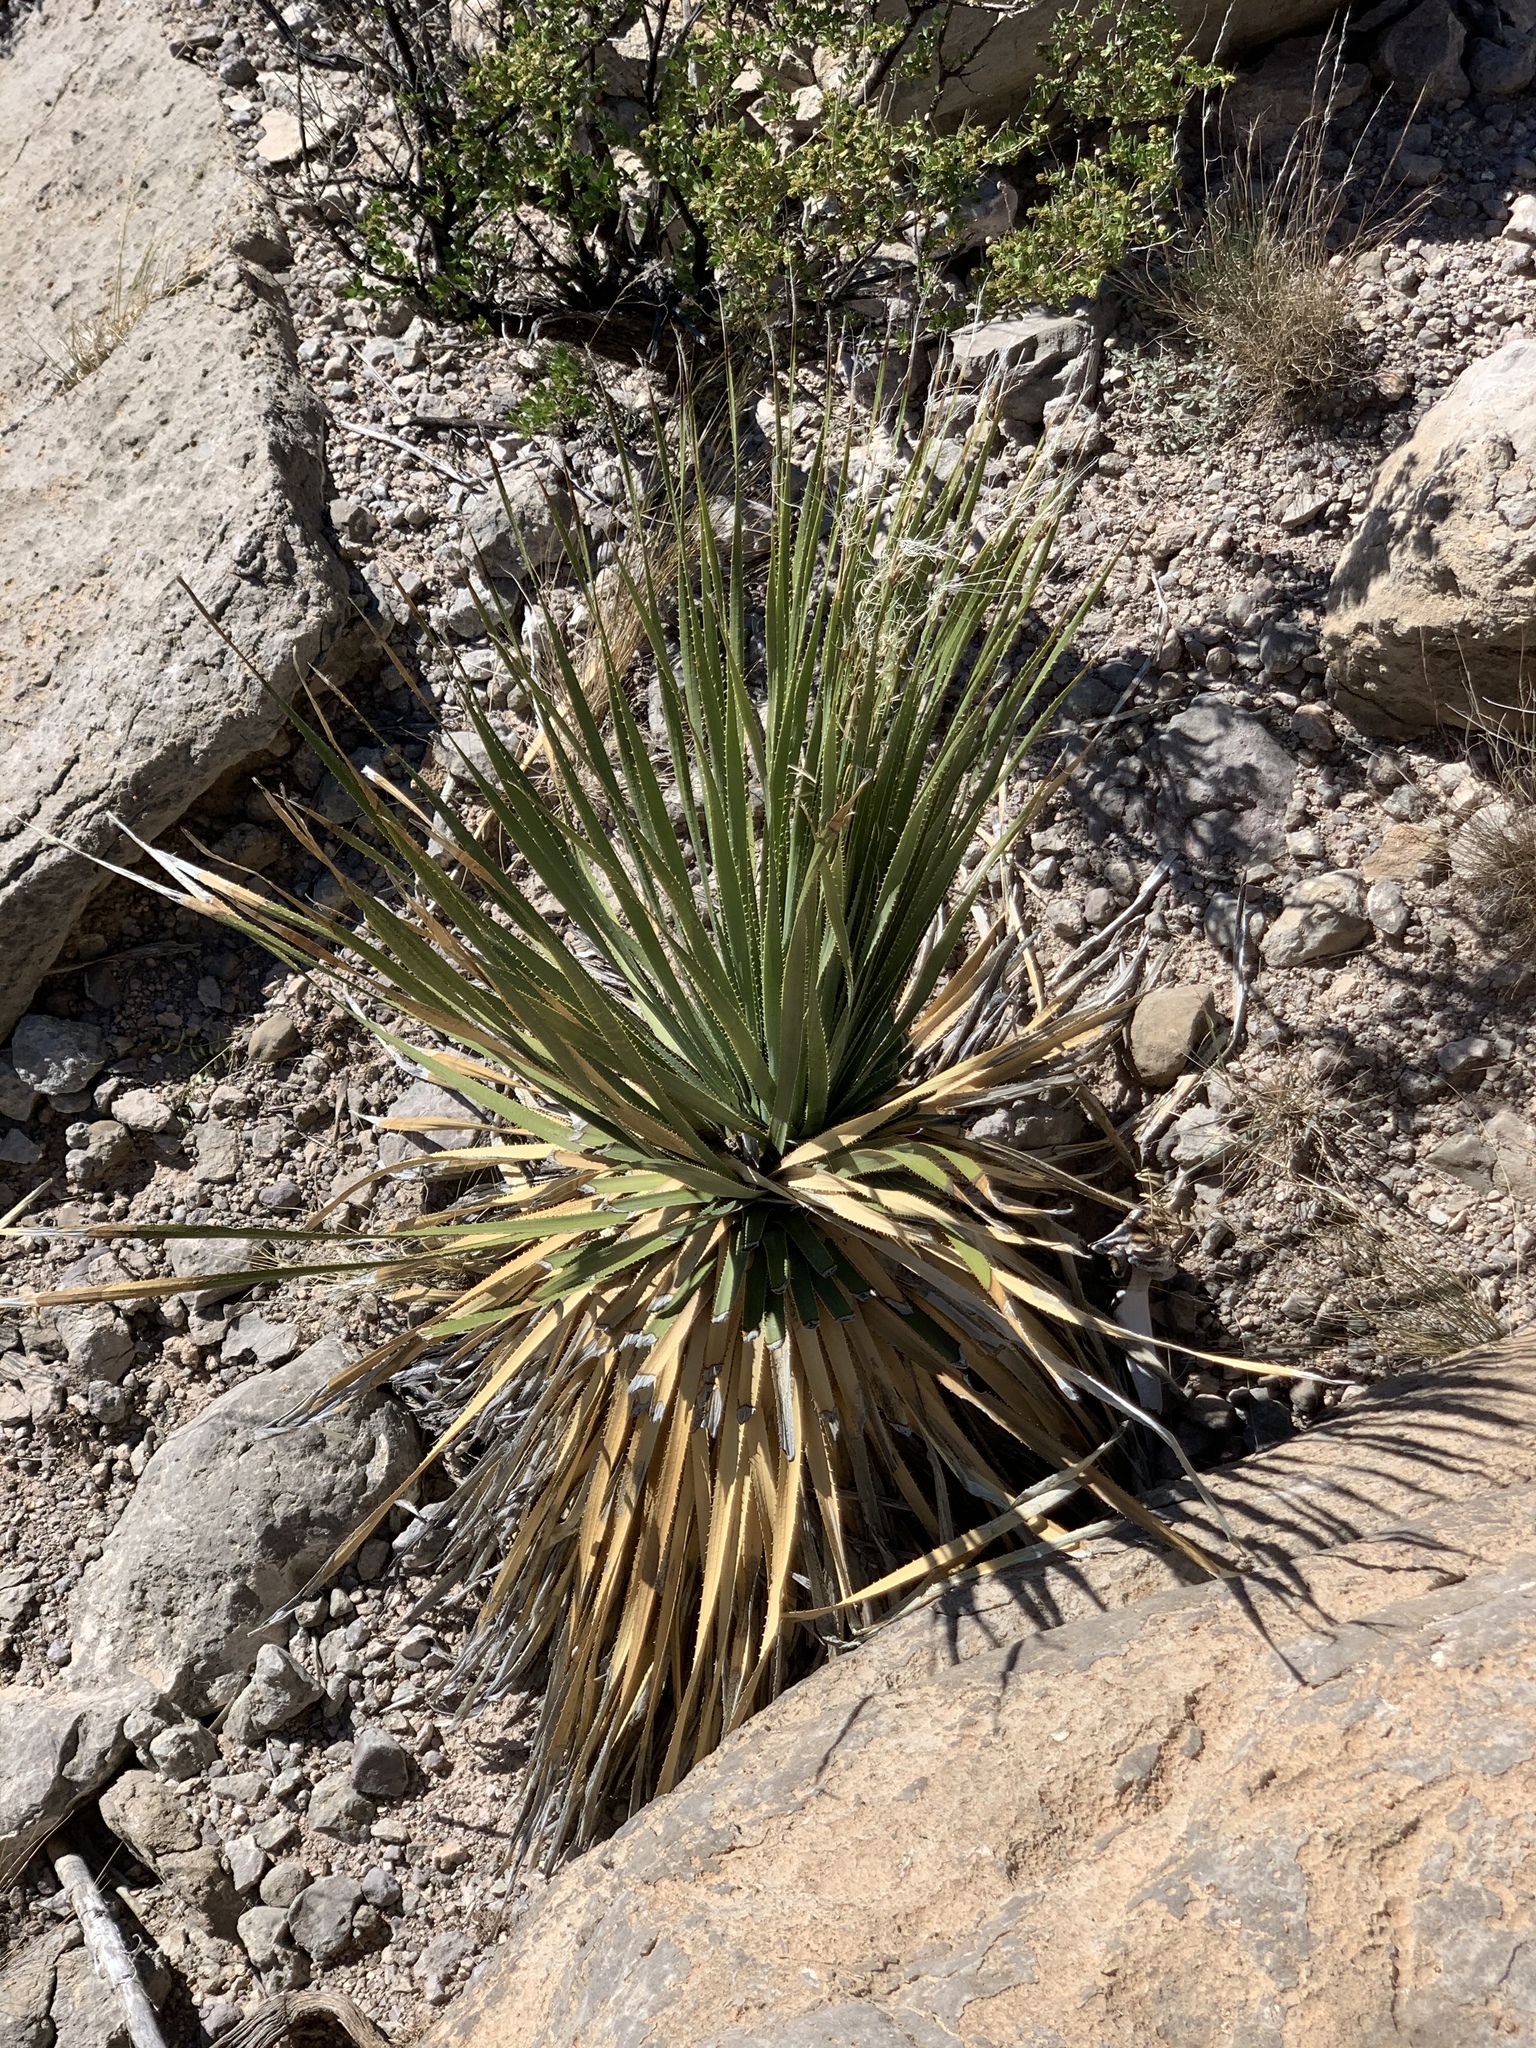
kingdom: Plantae
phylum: Tracheophyta
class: Liliopsida
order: Asparagales
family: Asparagaceae
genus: Dasylirion
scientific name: Dasylirion wheeleri
